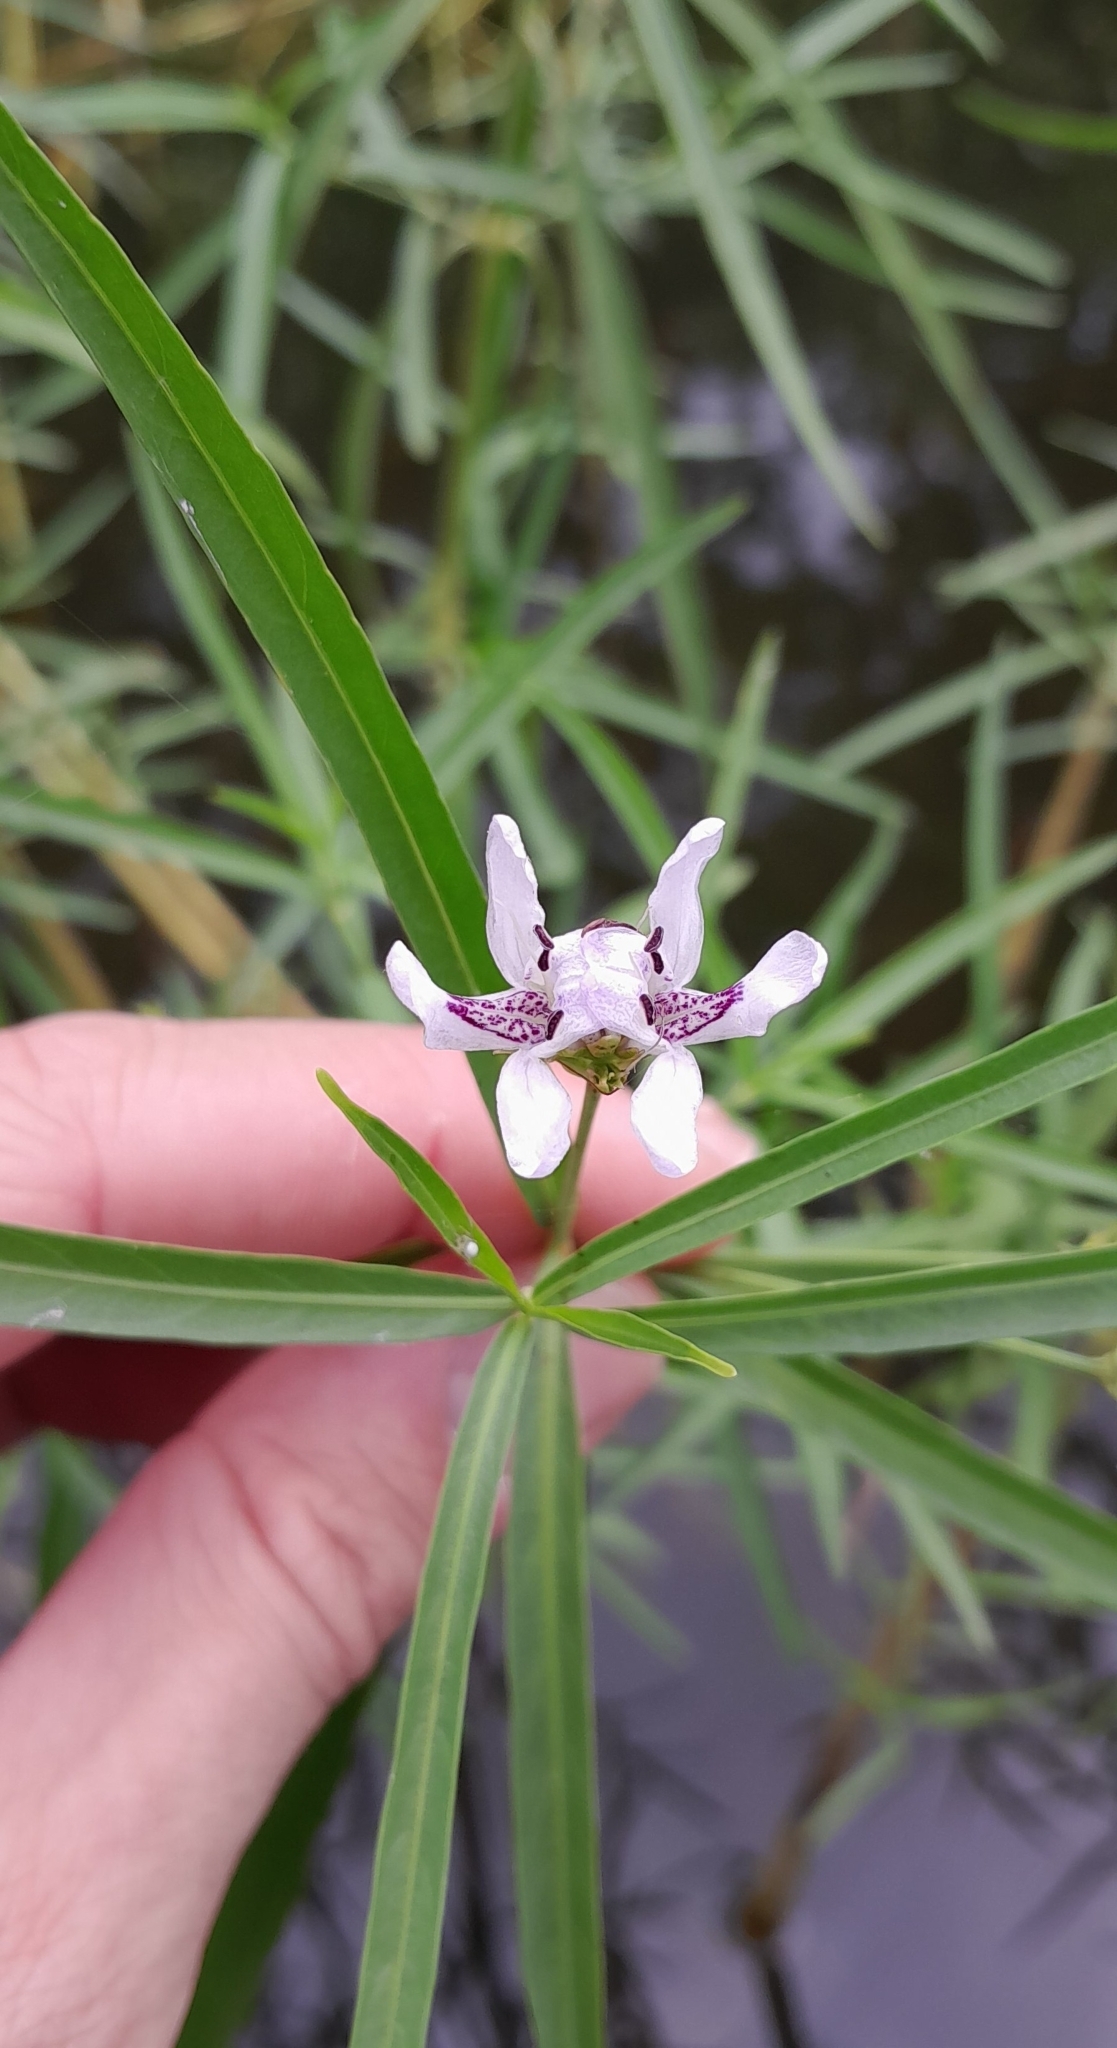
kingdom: Plantae
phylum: Tracheophyta
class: Magnoliopsida
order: Lamiales
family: Acanthaceae
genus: Dianthera
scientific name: Dianthera americana
